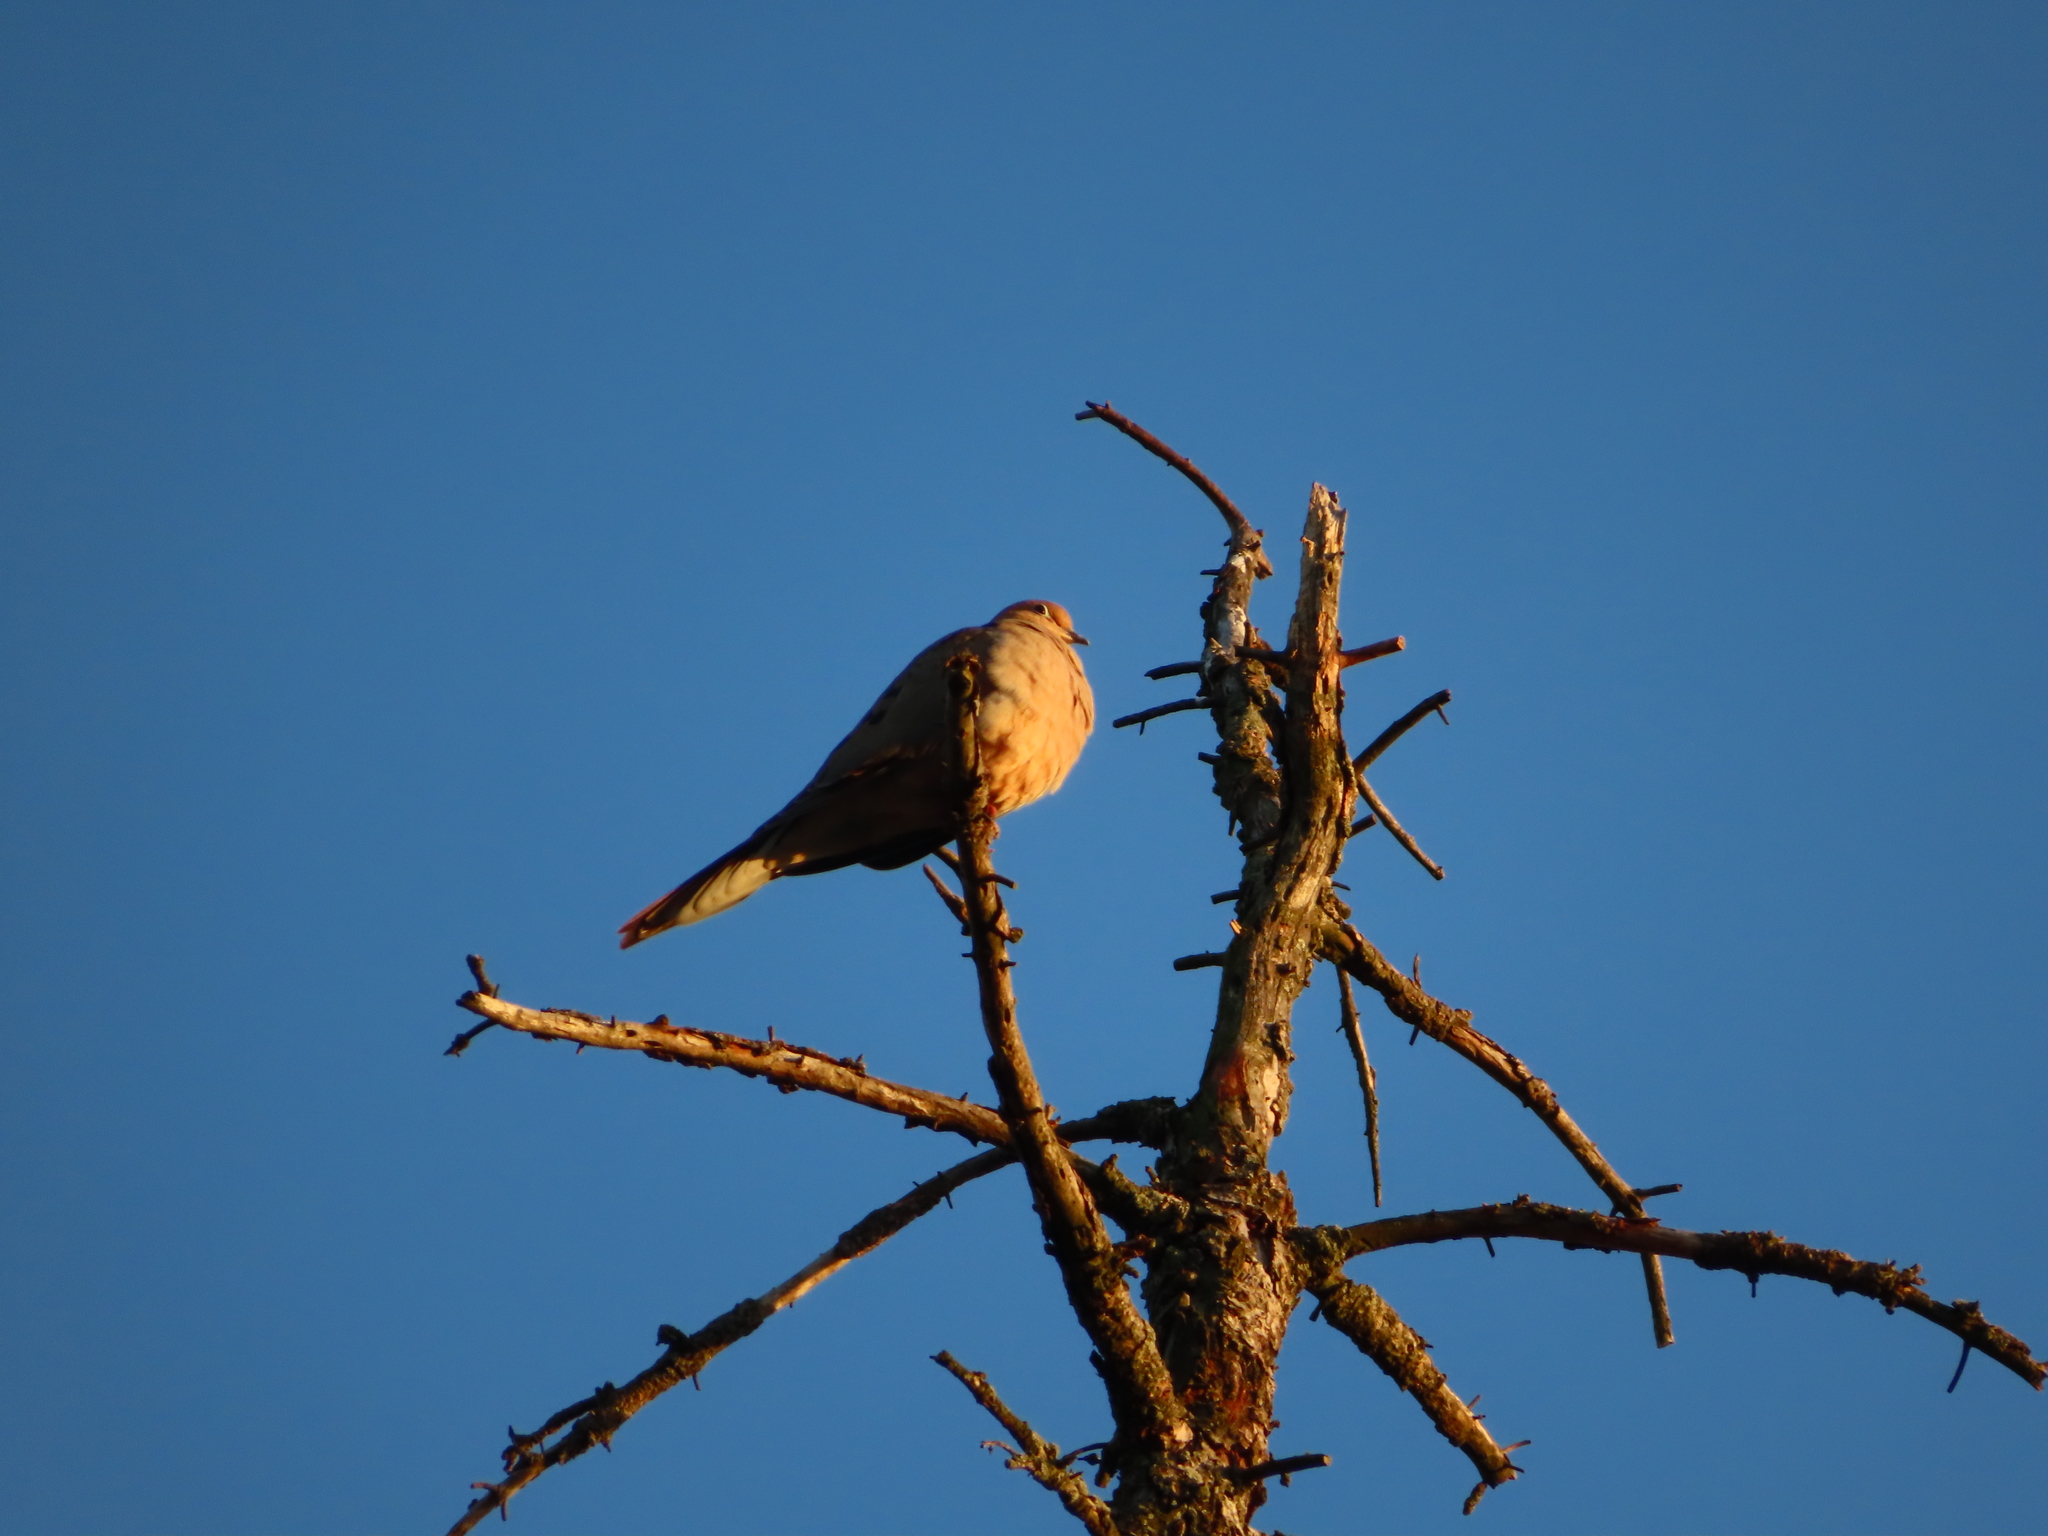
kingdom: Animalia
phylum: Chordata
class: Aves
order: Columbiformes
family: Columbidae
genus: Zenaida
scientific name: Zenaida macroura
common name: Mourning dove
